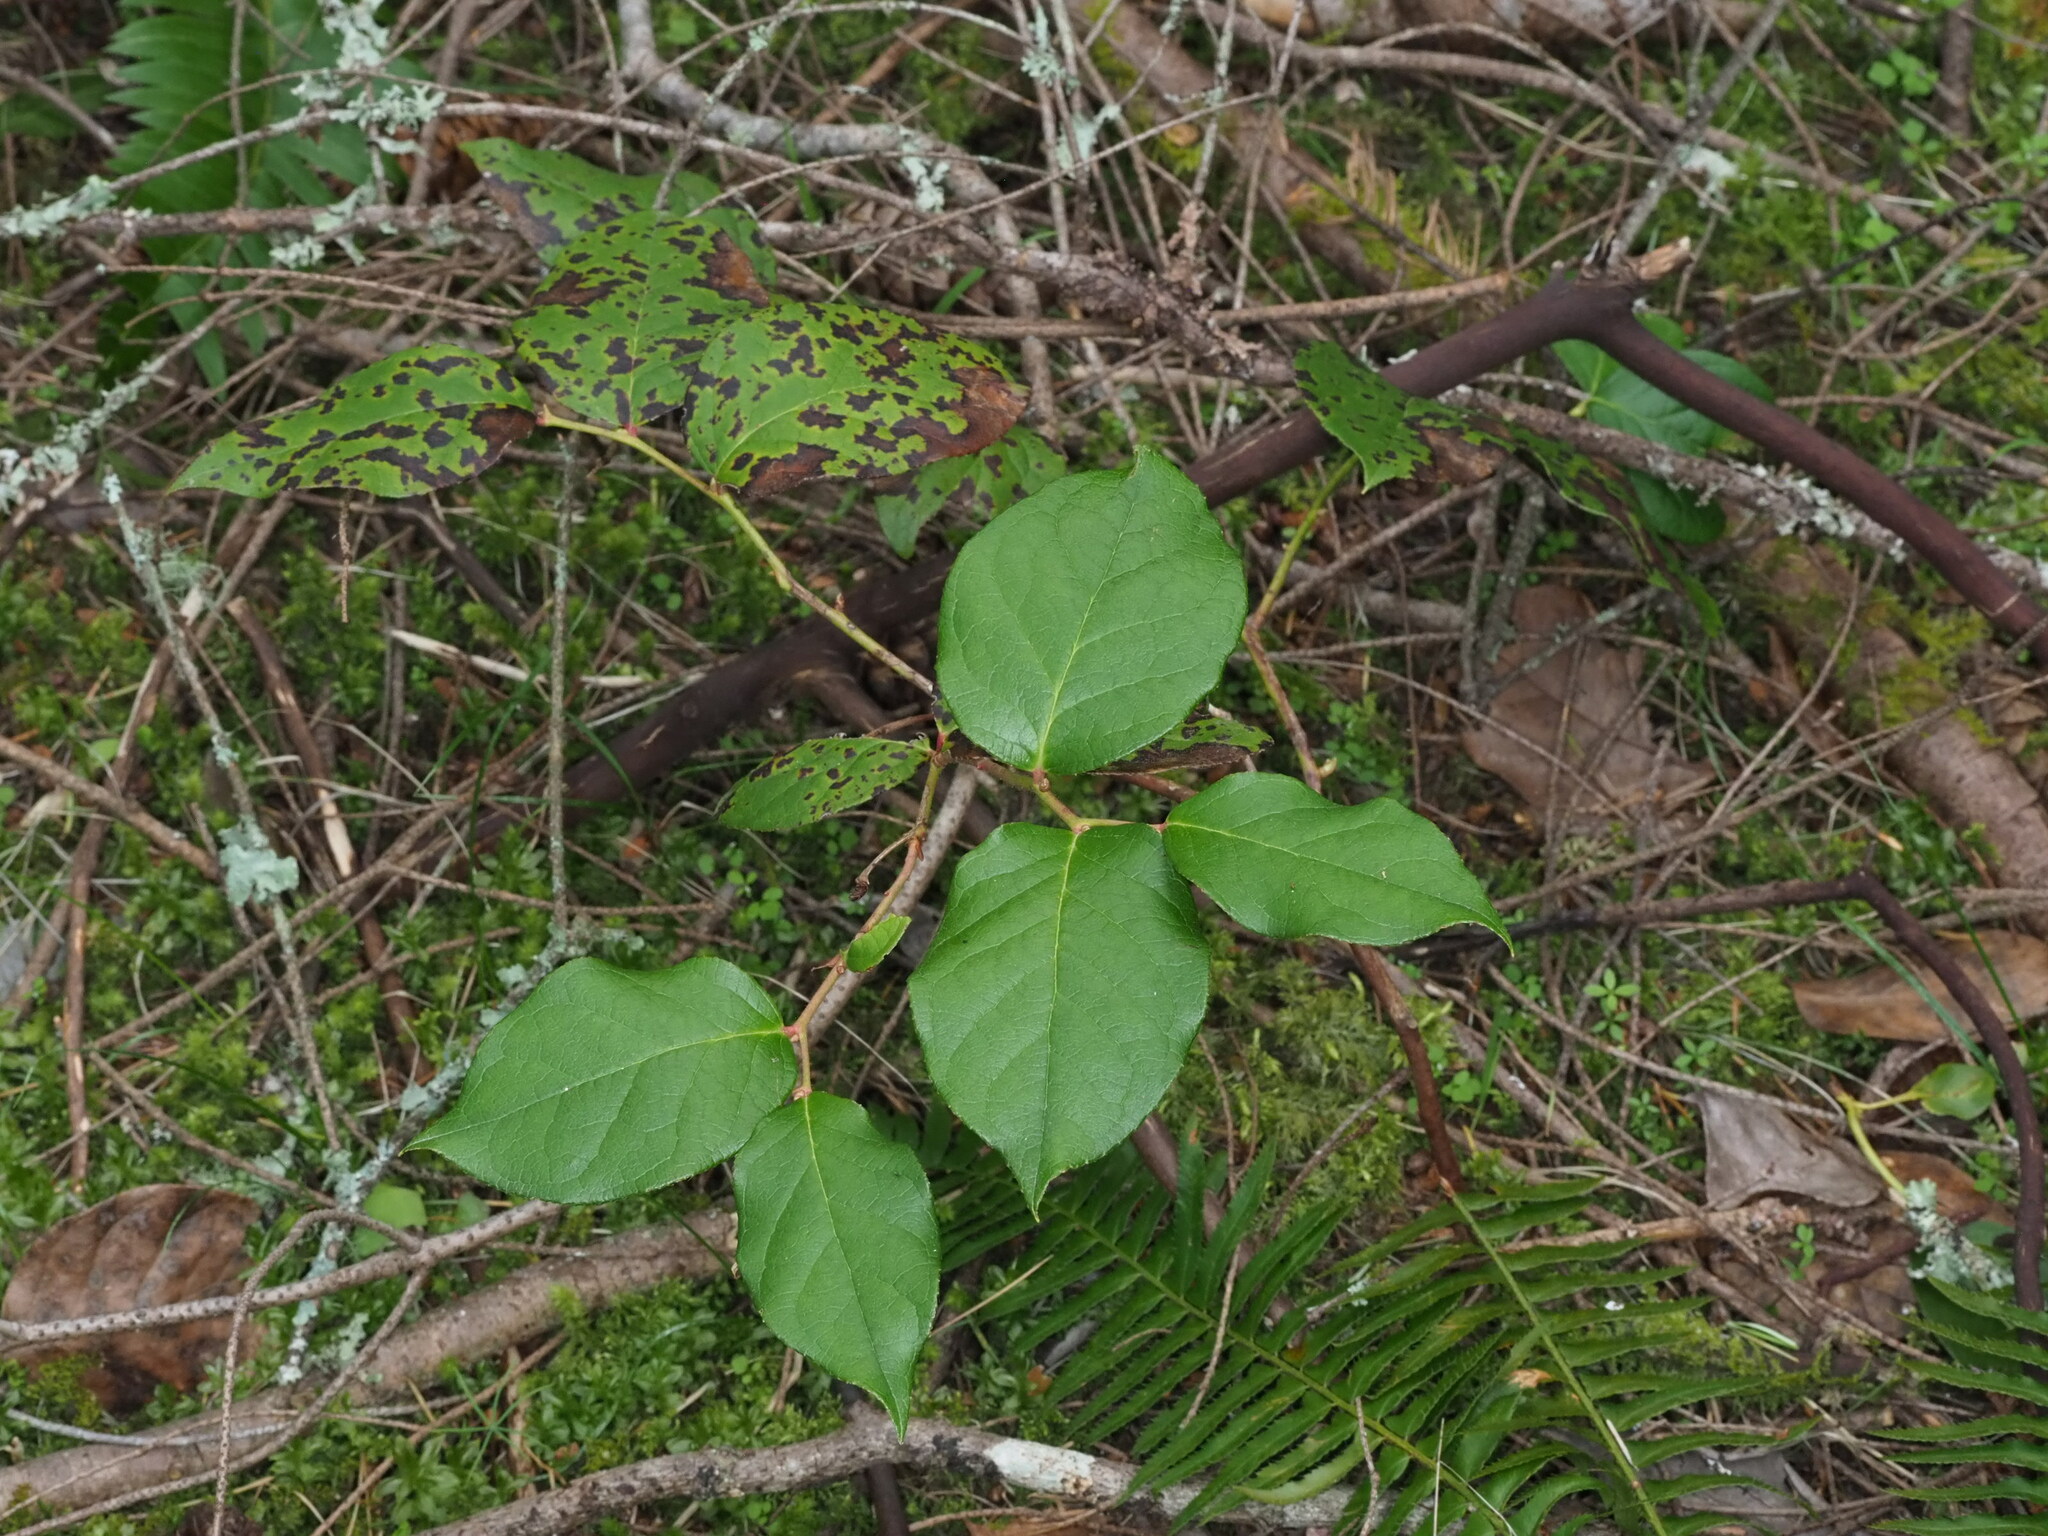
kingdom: Plantae
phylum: Tracheophyta
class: Magnoliopsida
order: Ericales
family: Ericaceae
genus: Gaultheria
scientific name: Gaultheria shallon
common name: Shallon
